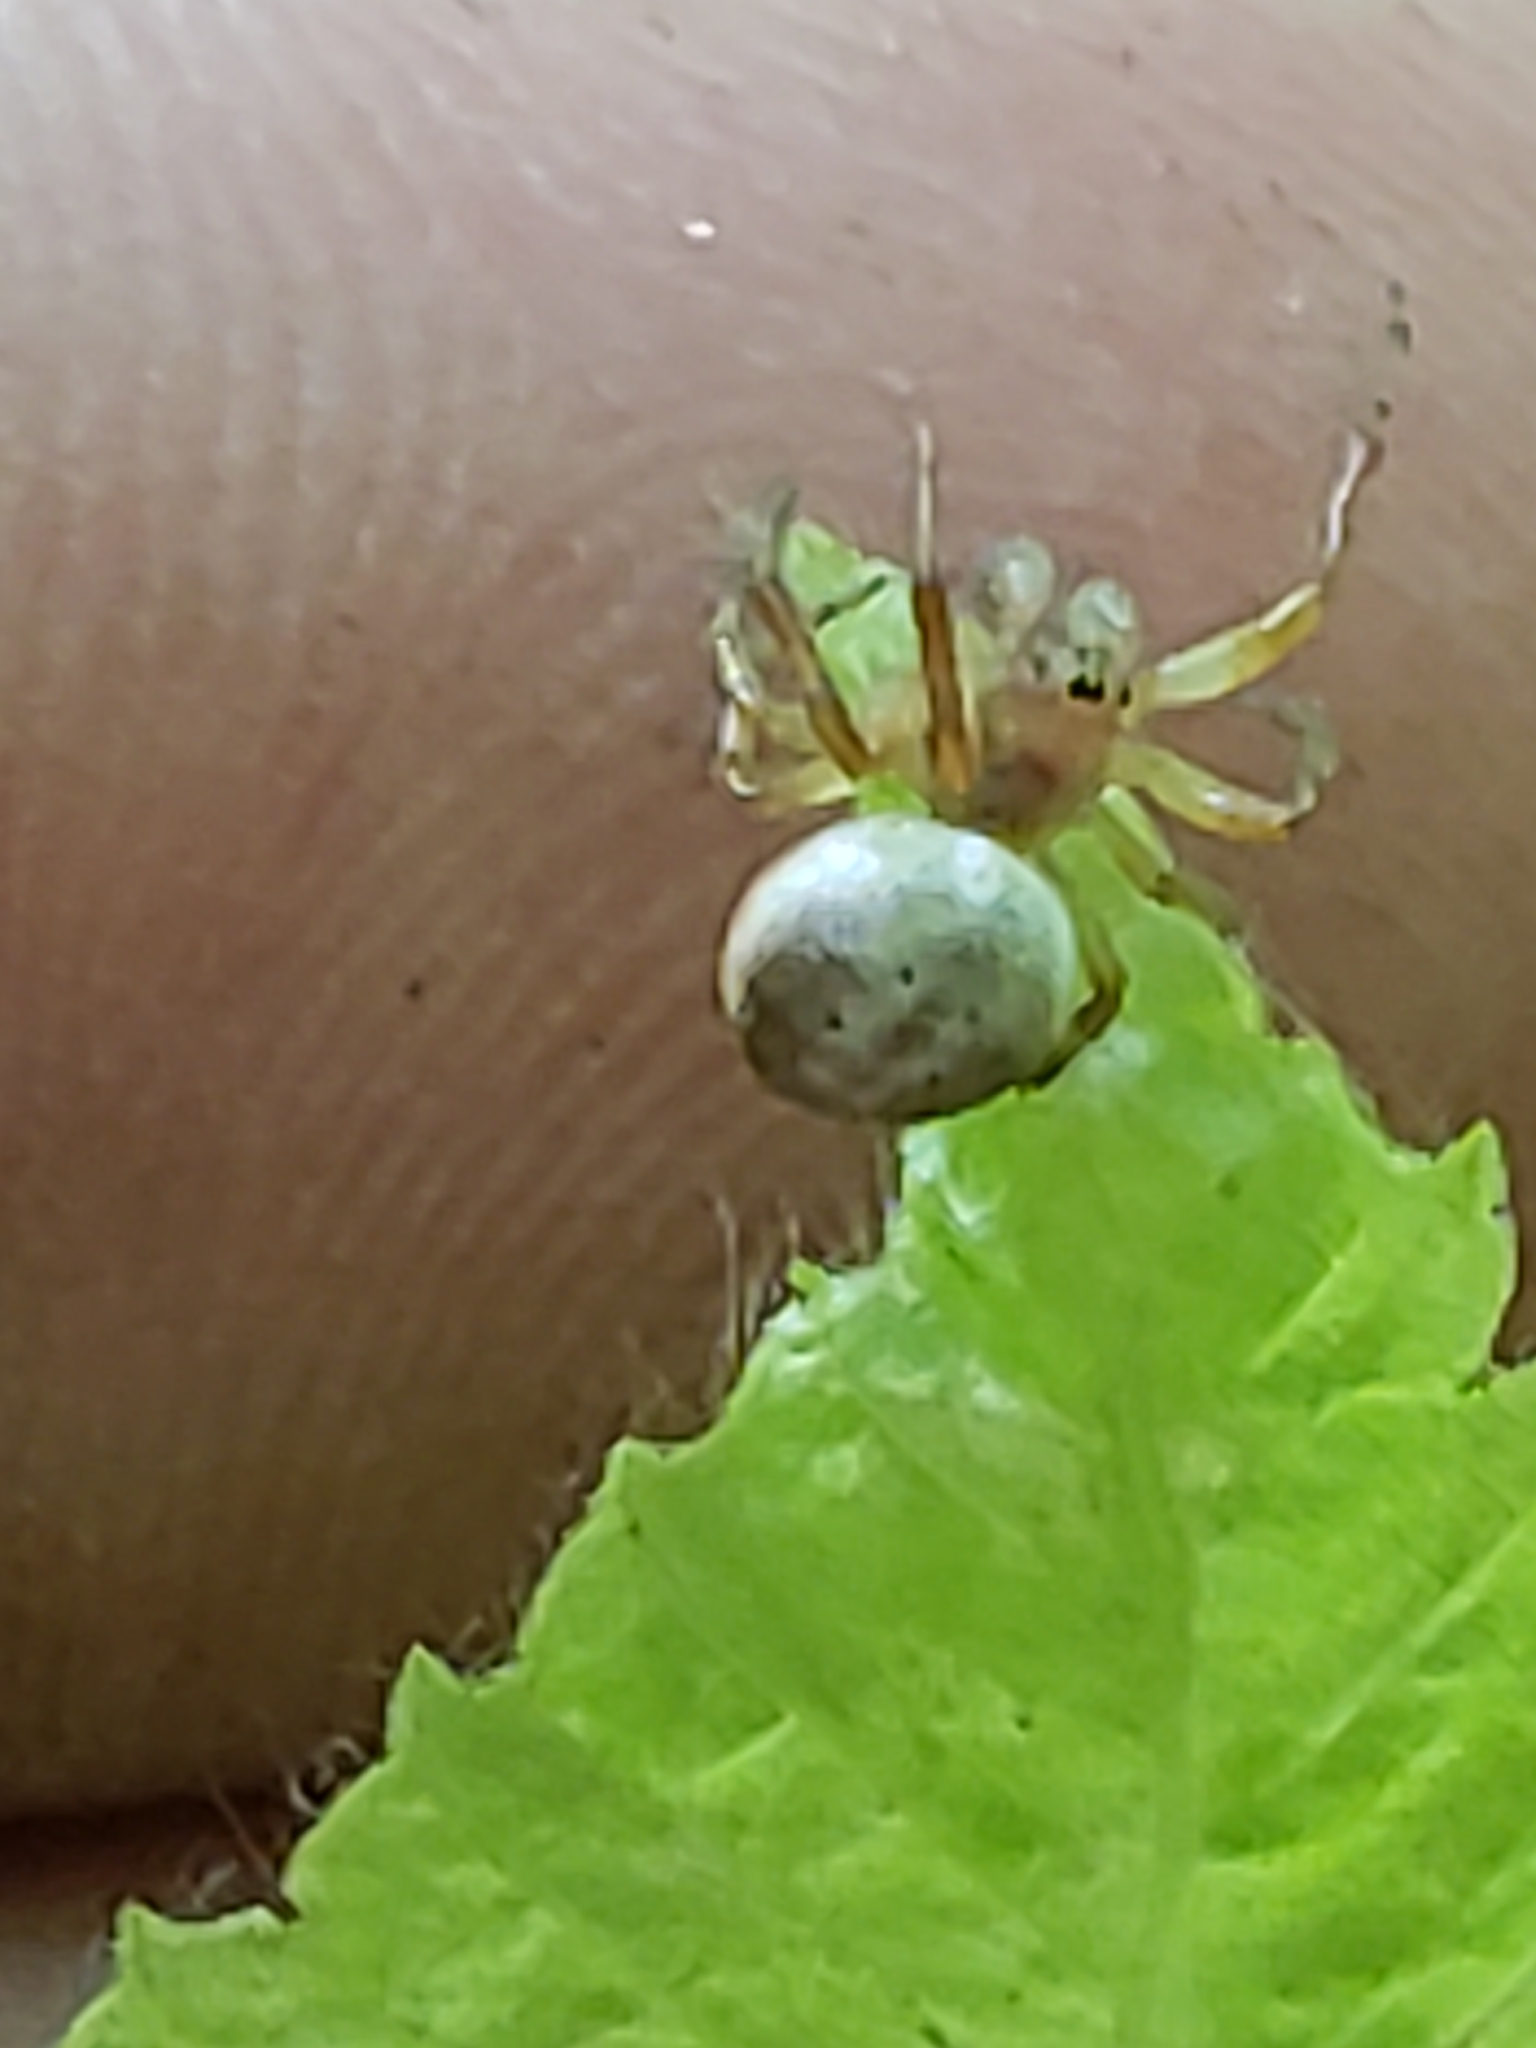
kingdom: Animalia
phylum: Arthropoda
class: Arachnida
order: Araneae
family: Araneidae
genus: Araniella
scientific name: Araniella displicata
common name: Sixspotted orb weaver
